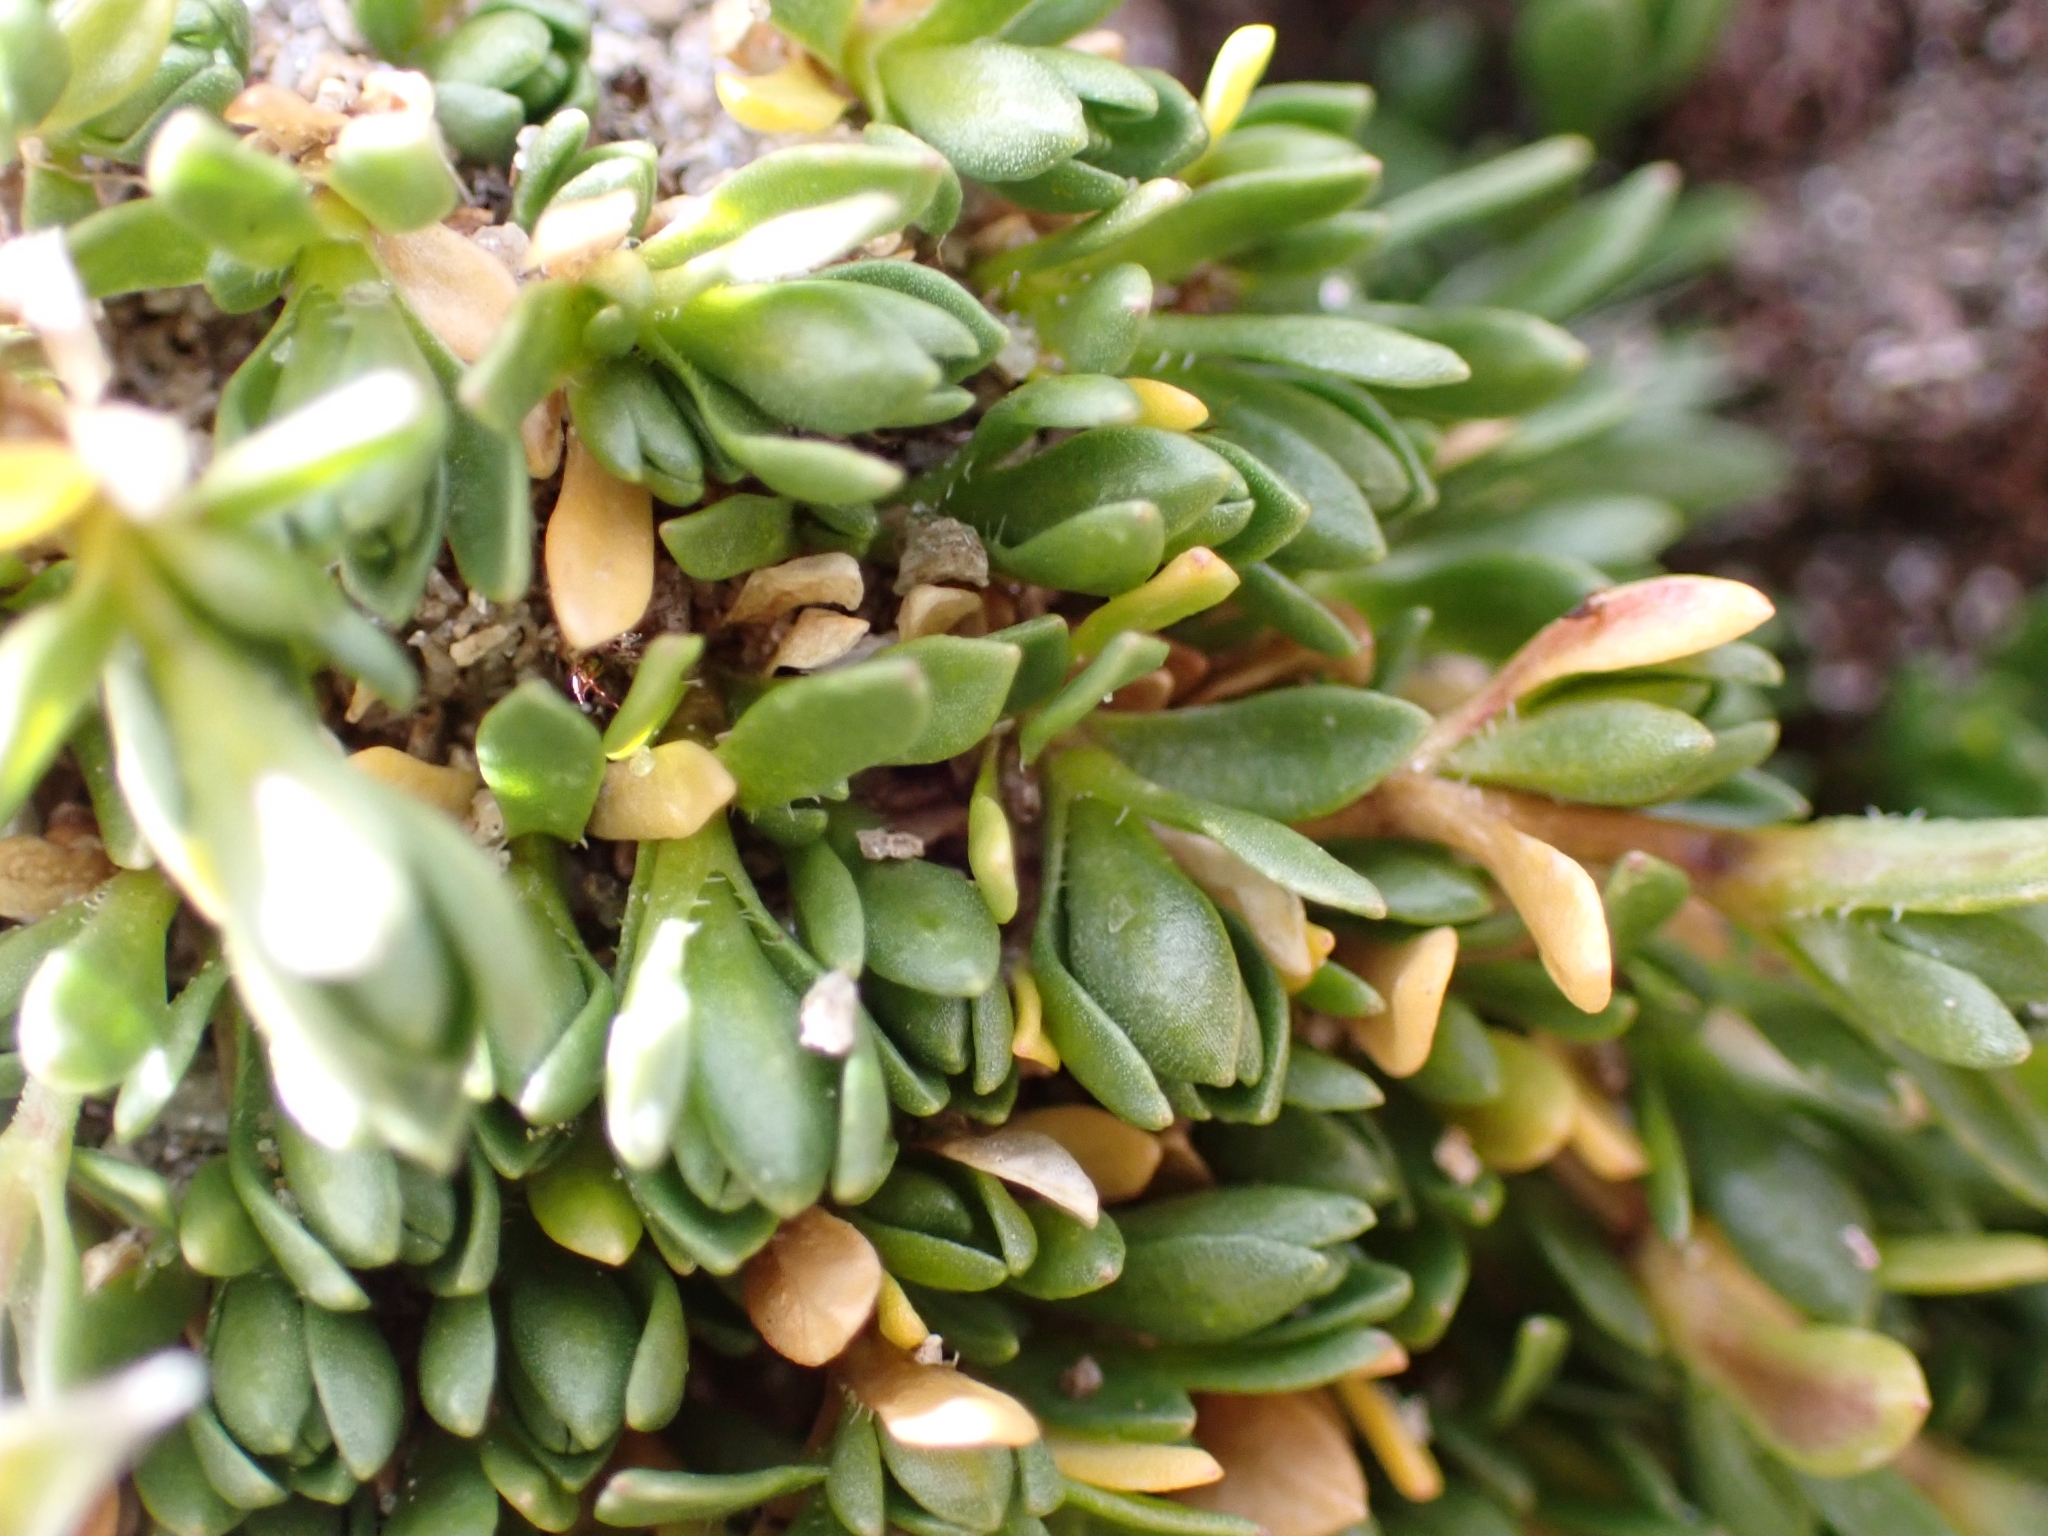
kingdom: Plantae
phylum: Tracheophyta
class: Magnoliopsida
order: Caryophyllales
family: Caryophyllaceae
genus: Arenaria
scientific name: Arenaria ciliata
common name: Fringed sandwort
